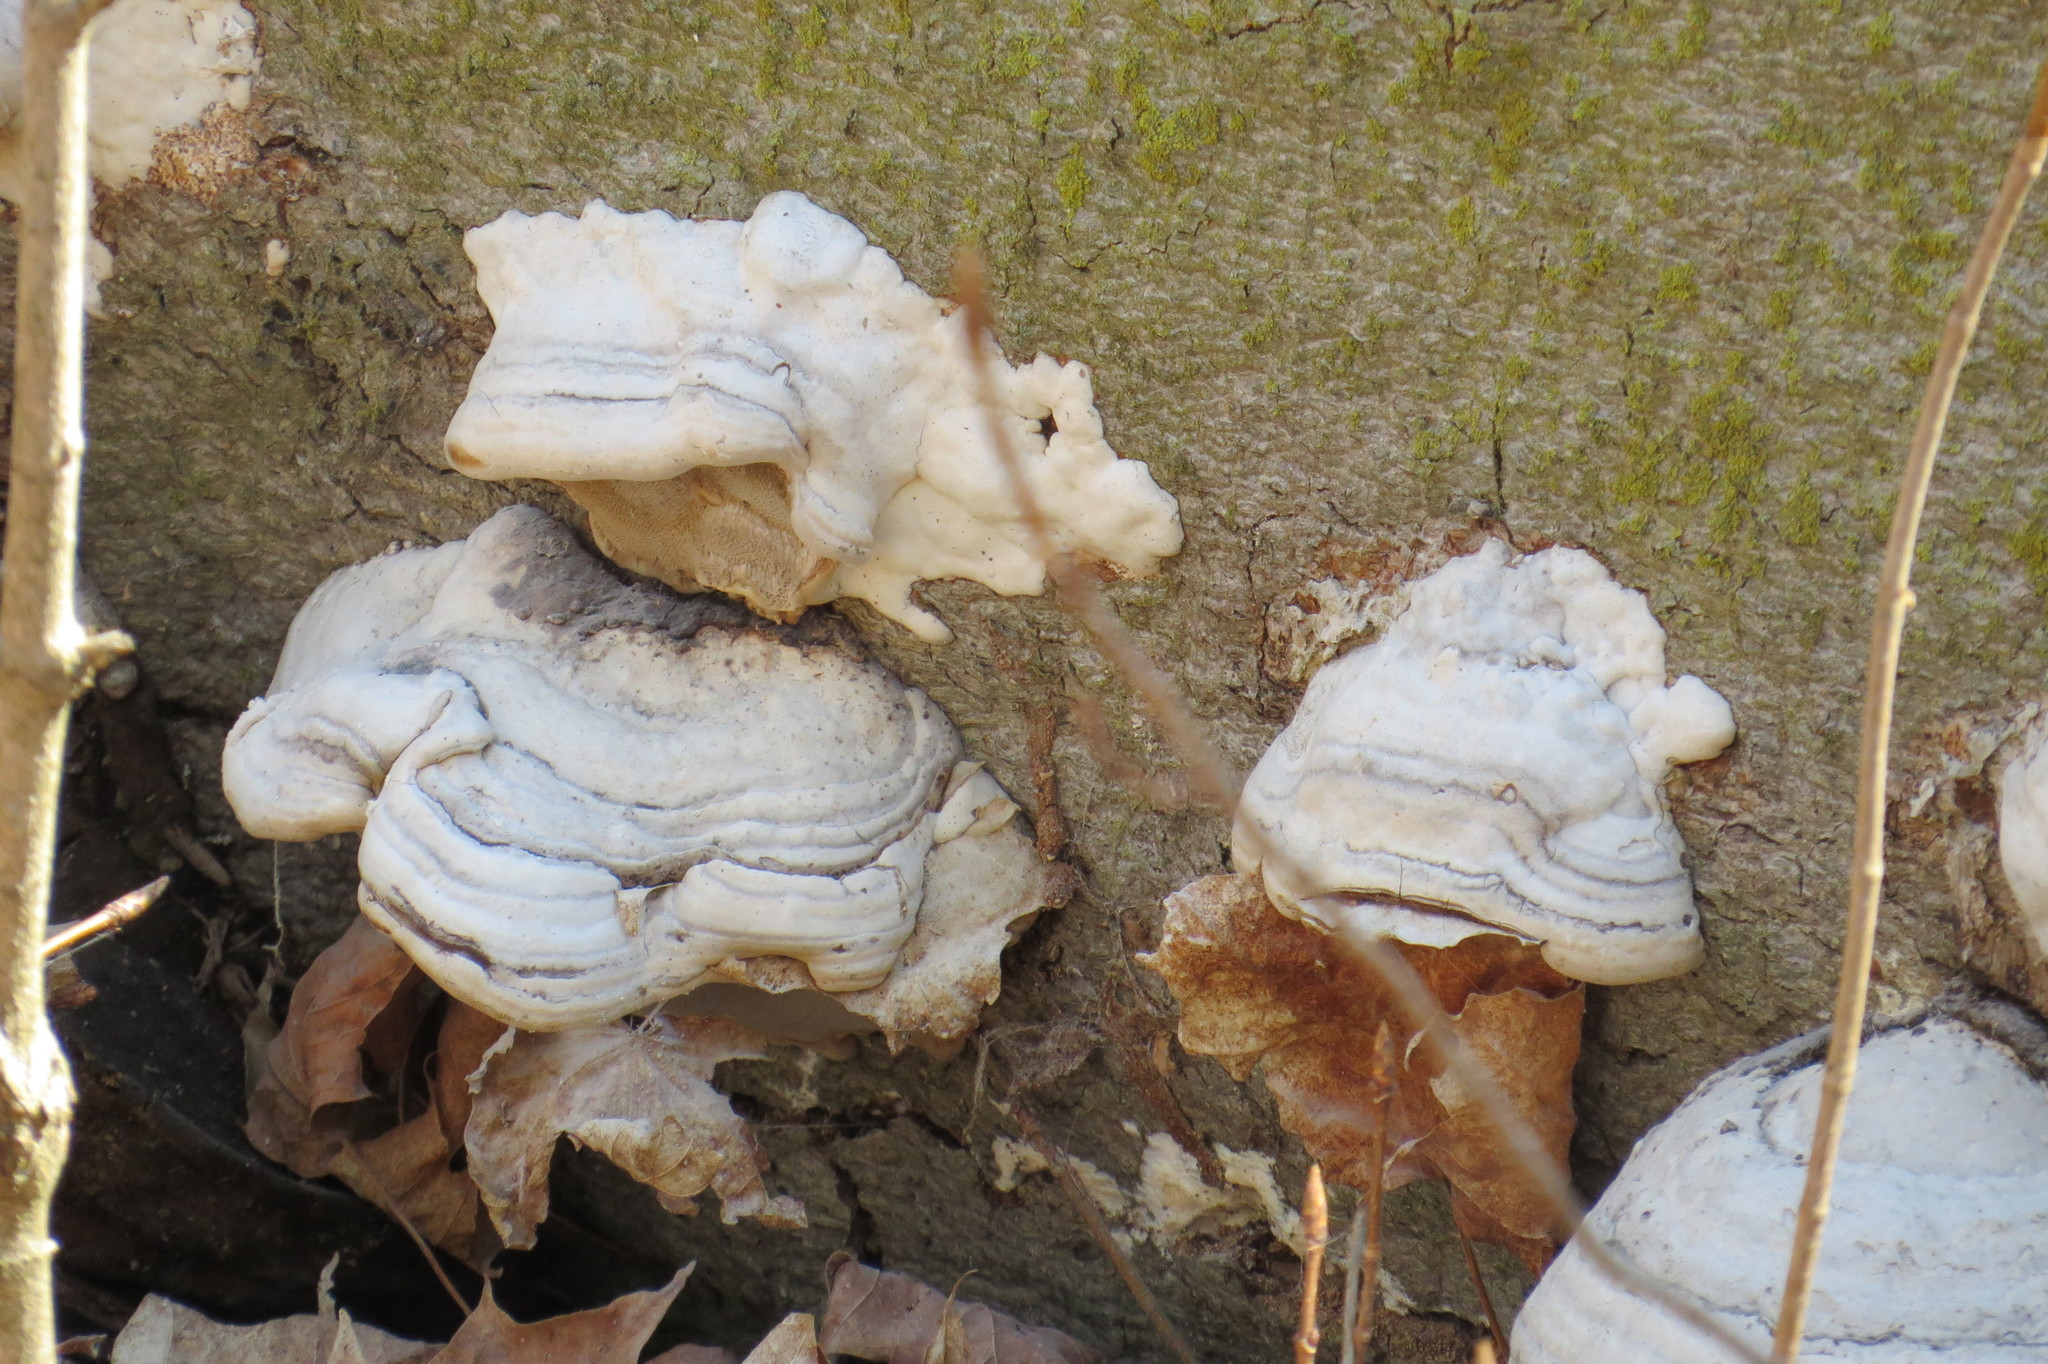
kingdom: Fungi
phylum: Basidiomycota
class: Agaricomycetes
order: Polyporales
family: Polyporaceae
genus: Fomes
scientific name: Fomes fomentarius
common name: Hoof fungus
